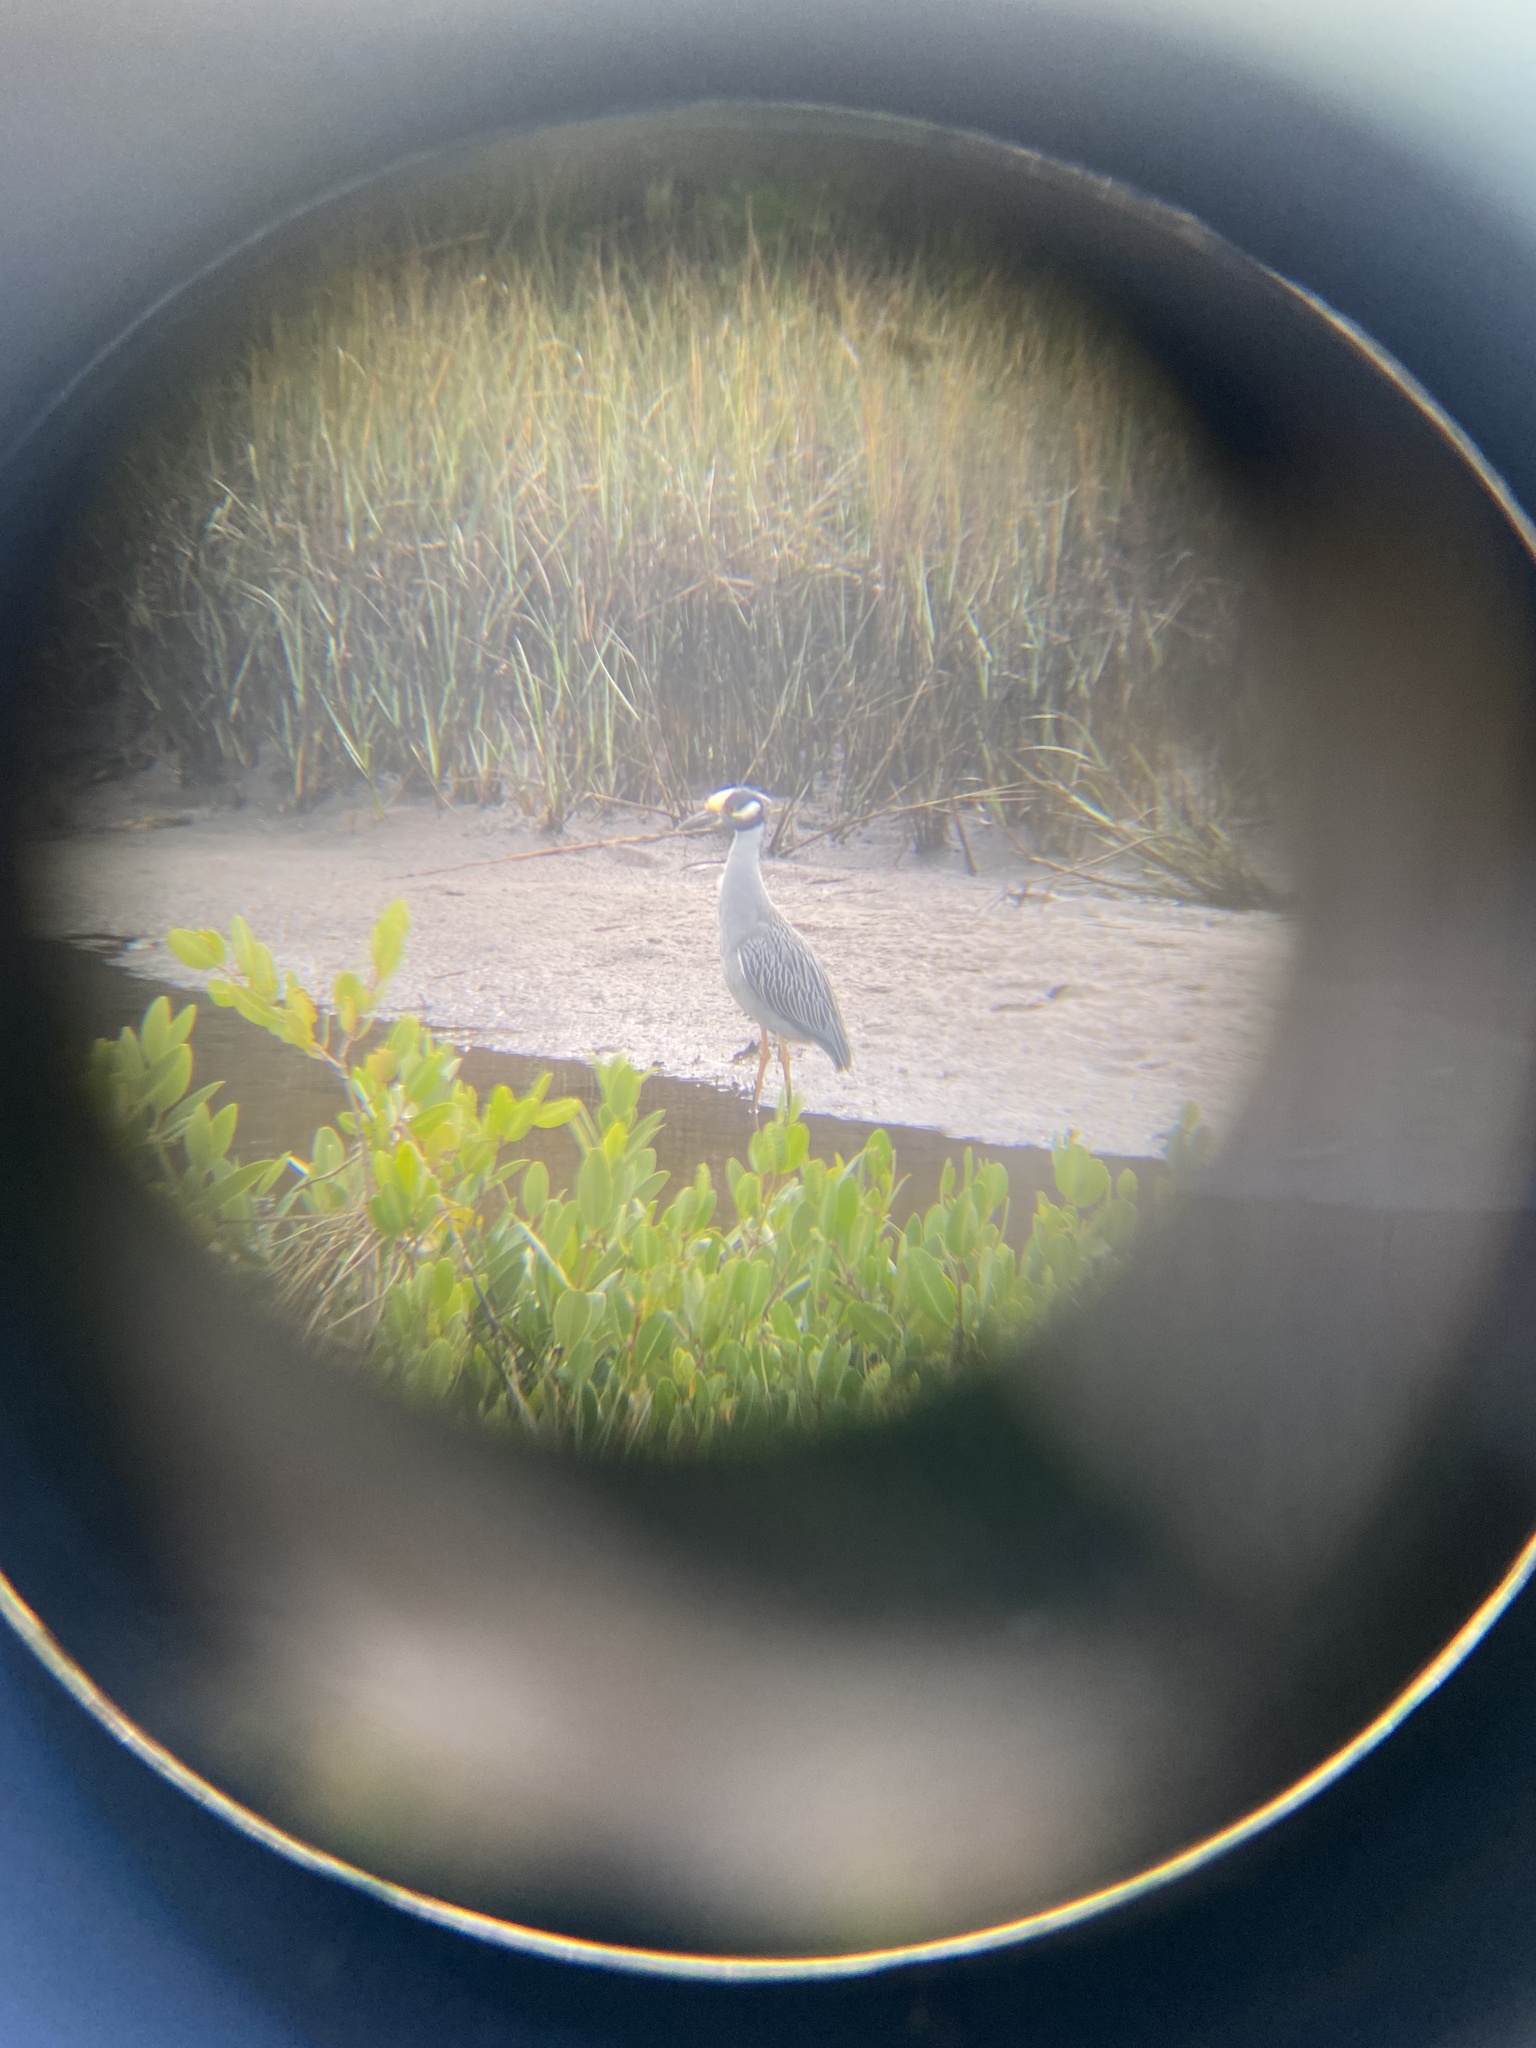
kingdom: Animalia
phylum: Chordata
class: Aves
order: Pelecaniformes
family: Ardeidae
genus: Nyctanassa
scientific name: Nyctanassa violacea
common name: Yellow-crowned night heron
